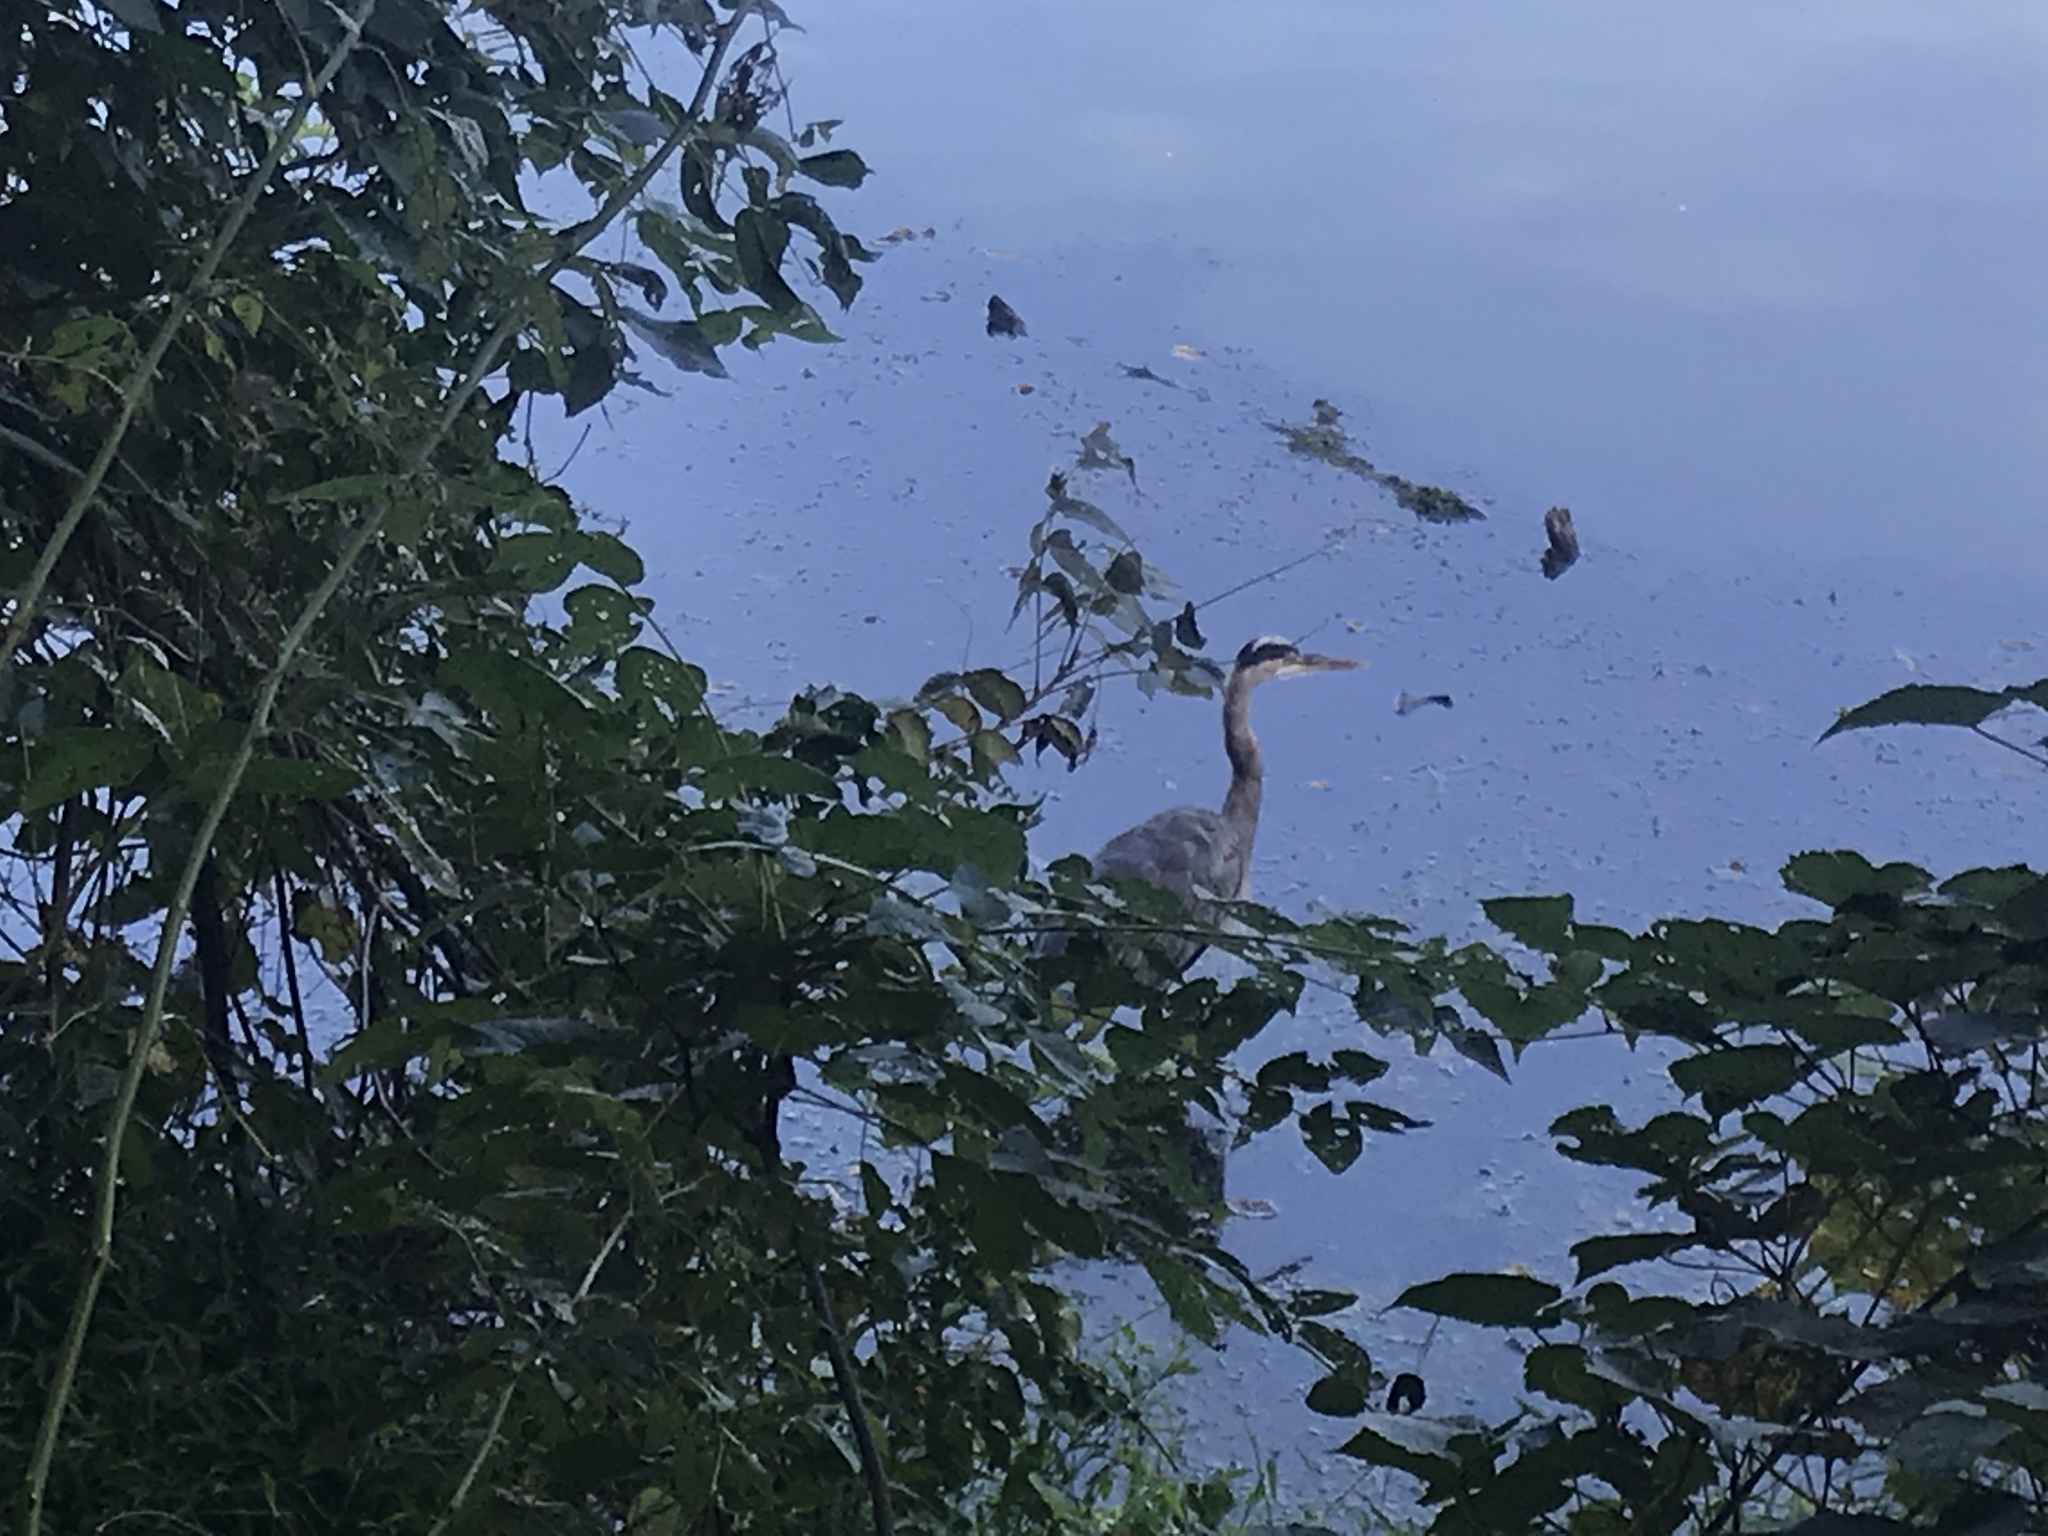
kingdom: Animalia
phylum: Chordata
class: Aves
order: Pelecaniformes
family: Ardeidae
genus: Ardea
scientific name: Ardea herodias
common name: Great blue heron
